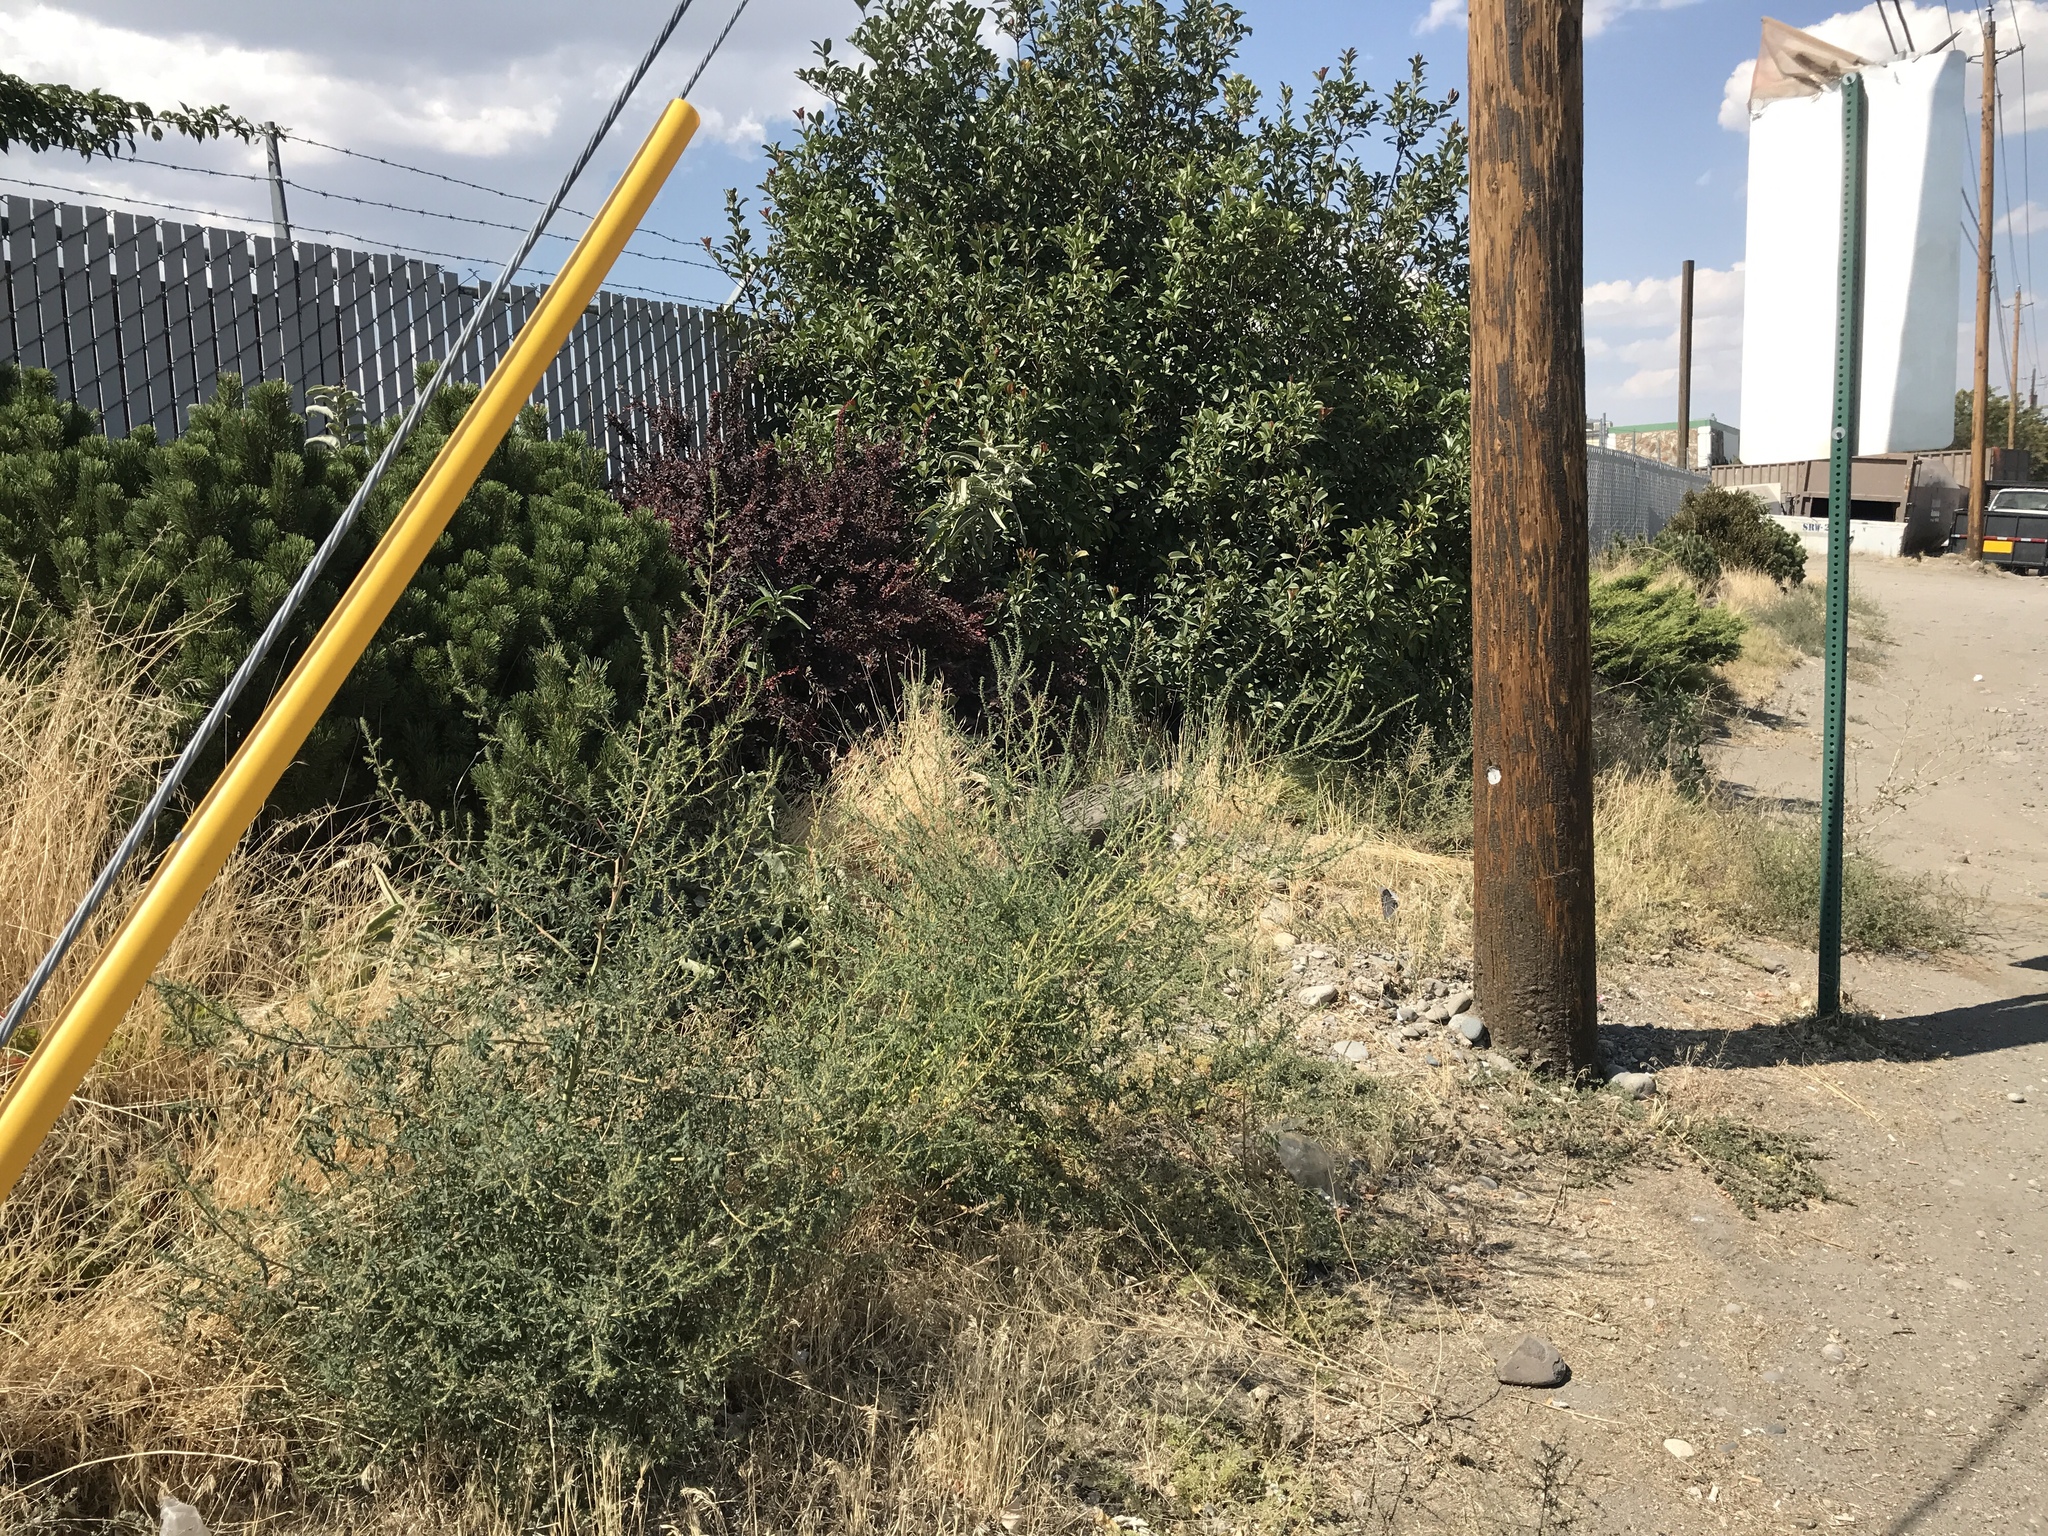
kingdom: Plantae
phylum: Tracheophyta
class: Magnoliopsida
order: Gentianales
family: Apocynaceae
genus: Asclepias
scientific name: Asclepias speciosa
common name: Showy milkweed
